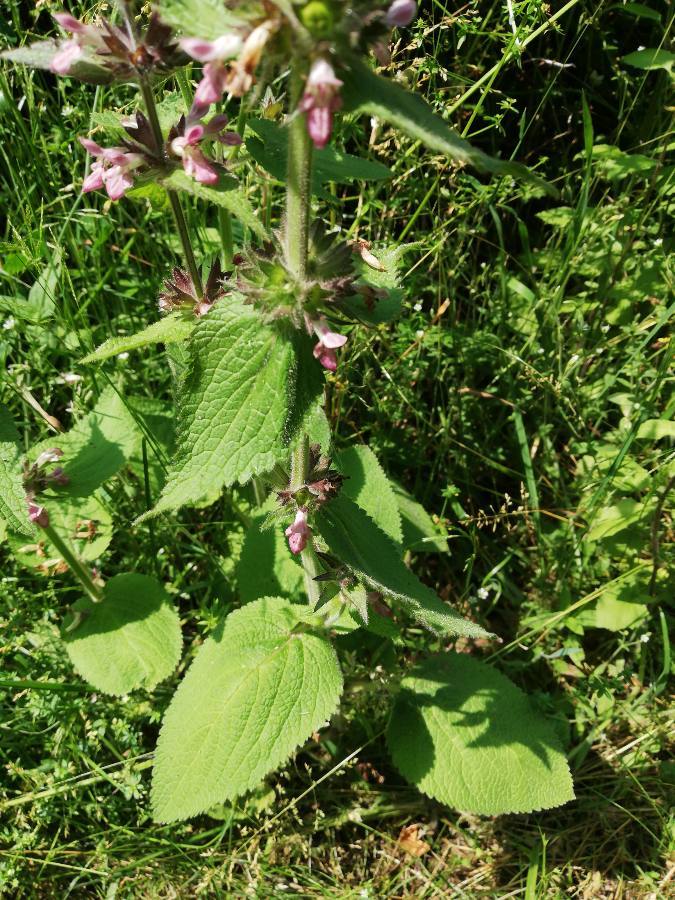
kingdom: Plantae
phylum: Tracheophyta
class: Magnoliopsida
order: Lamiales
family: Lamiaceae
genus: Stachys
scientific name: Stachys alpina
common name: Limestone woundwort
